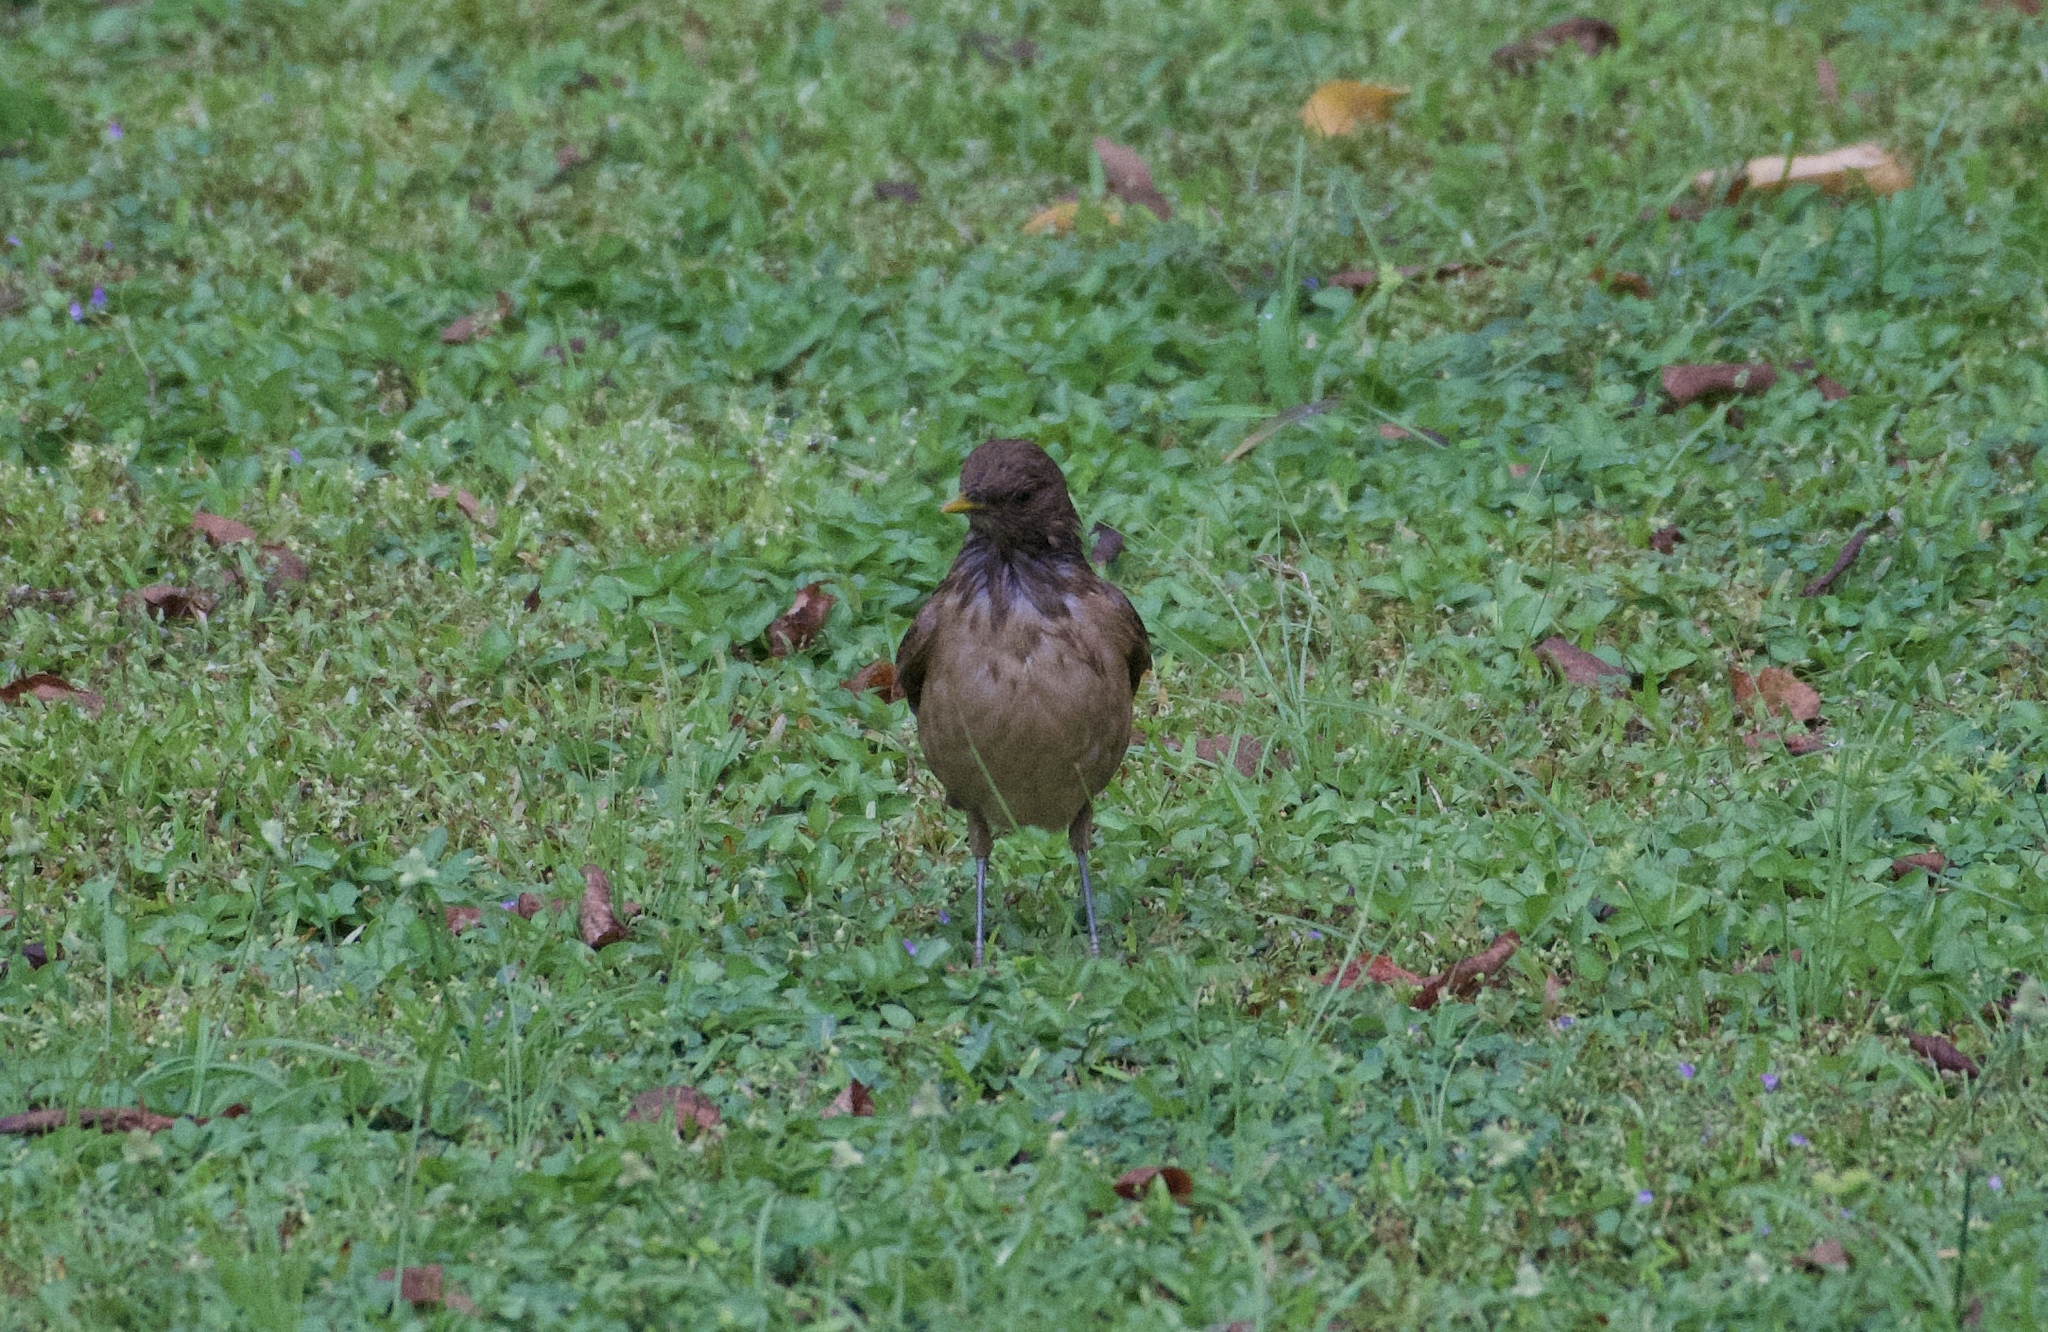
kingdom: Animalia
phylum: Chordata
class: Aves
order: Passeriformes
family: Turdidae
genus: Turdus
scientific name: Turdus grayi
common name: Clay-colored thrush
